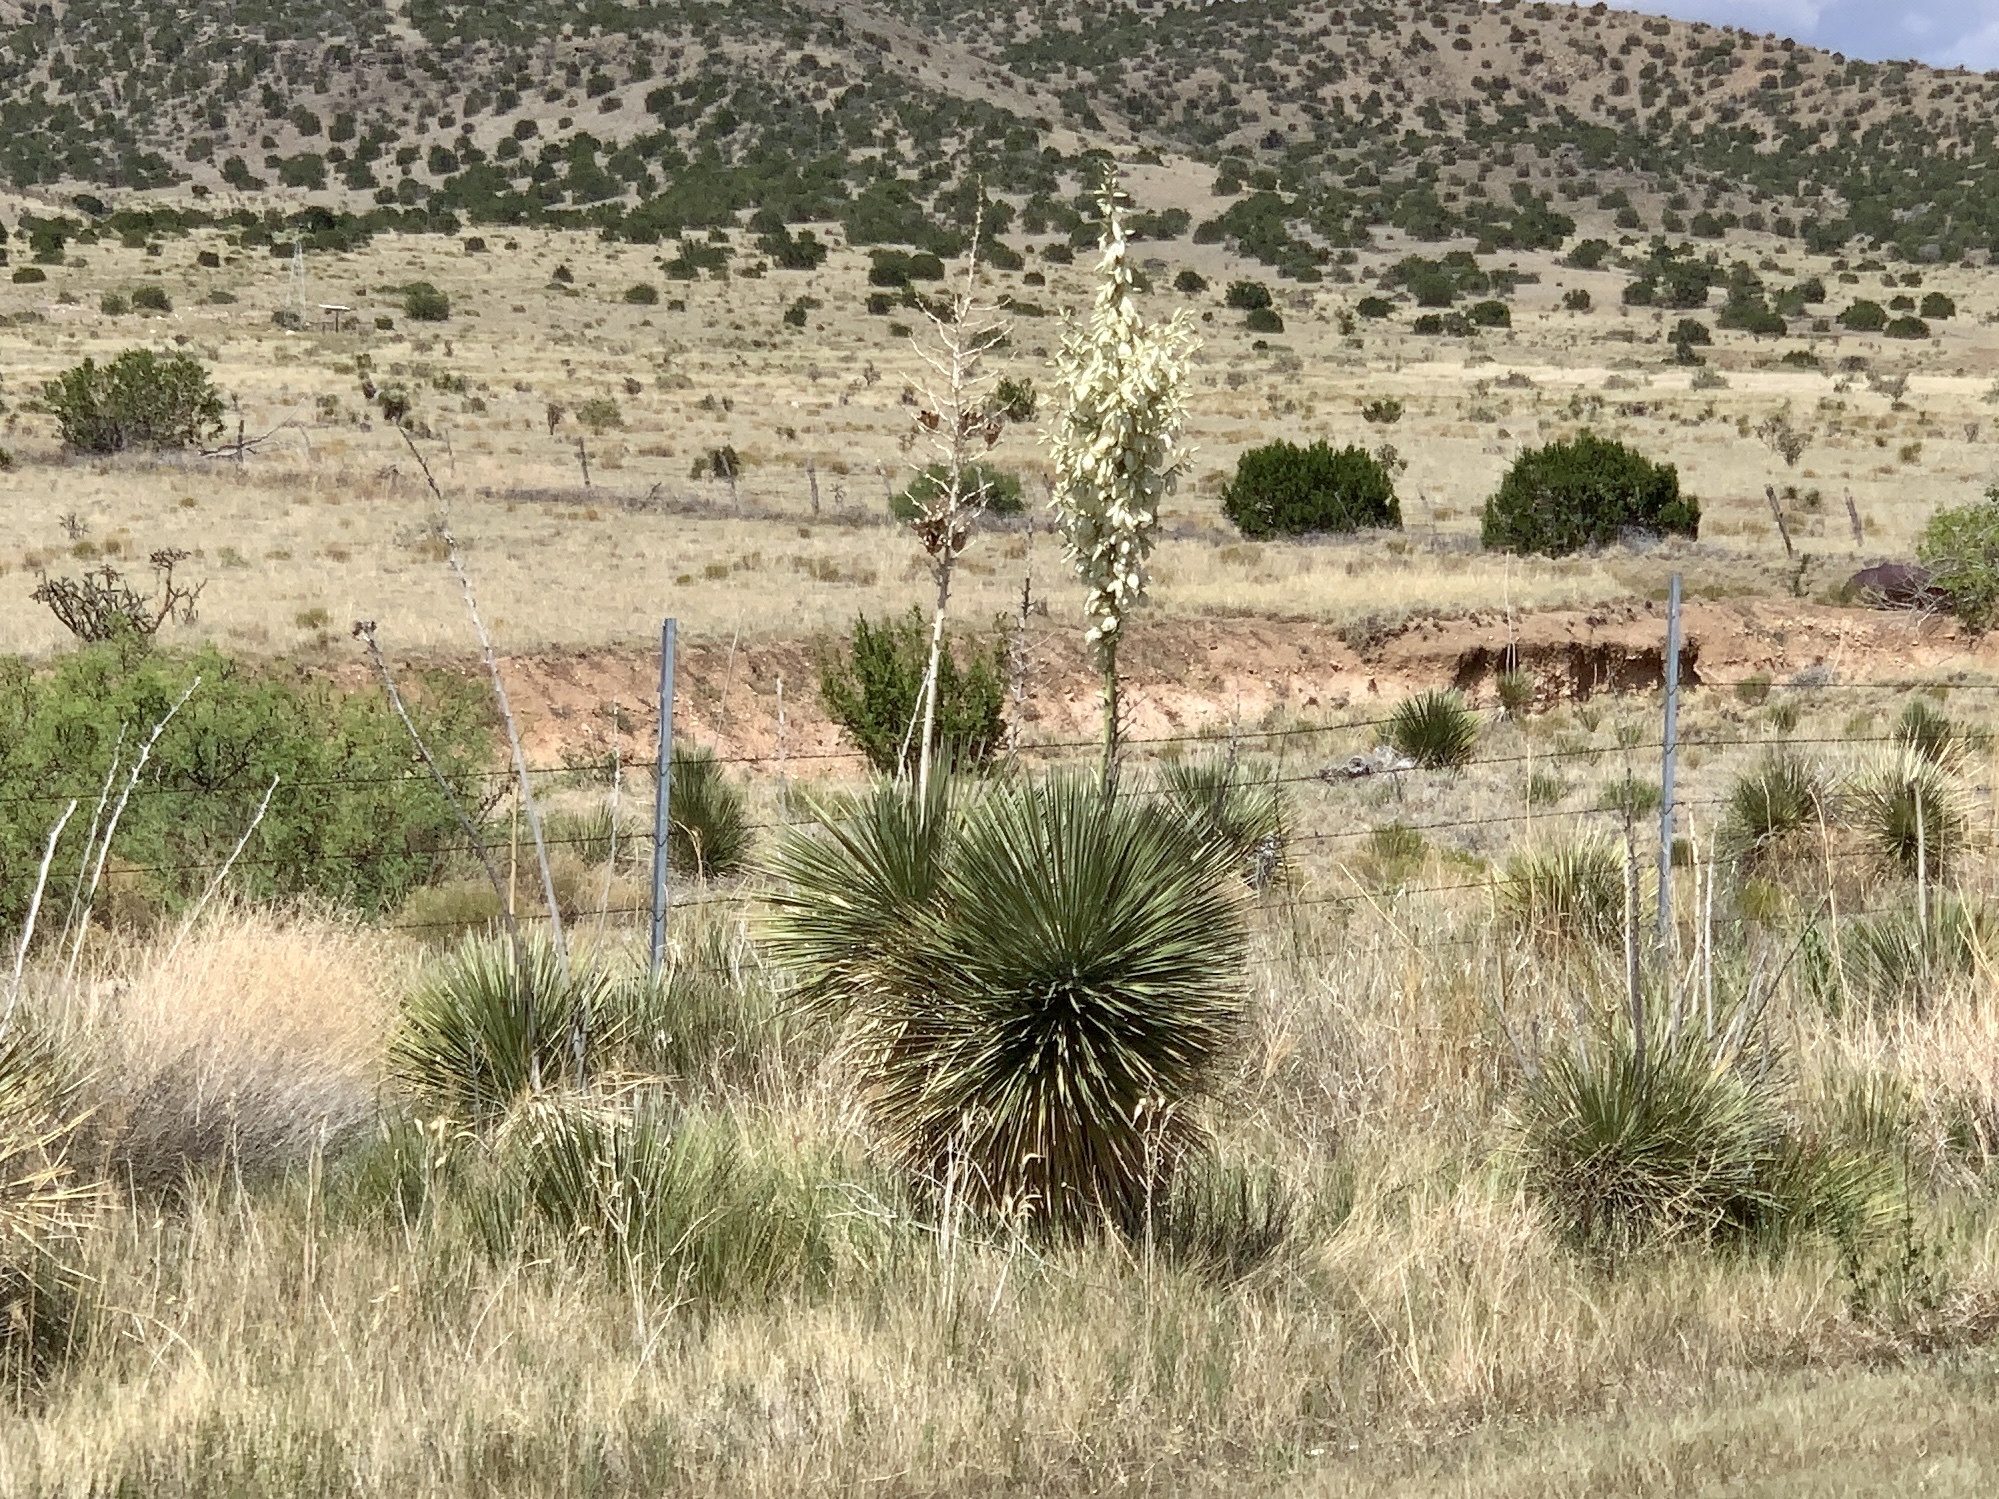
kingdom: Plantae
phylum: Tracheophyta
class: Liliopsida
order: Asparagales
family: Asparagaceae
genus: Yucca
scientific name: Yucca elata
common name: Palmella
